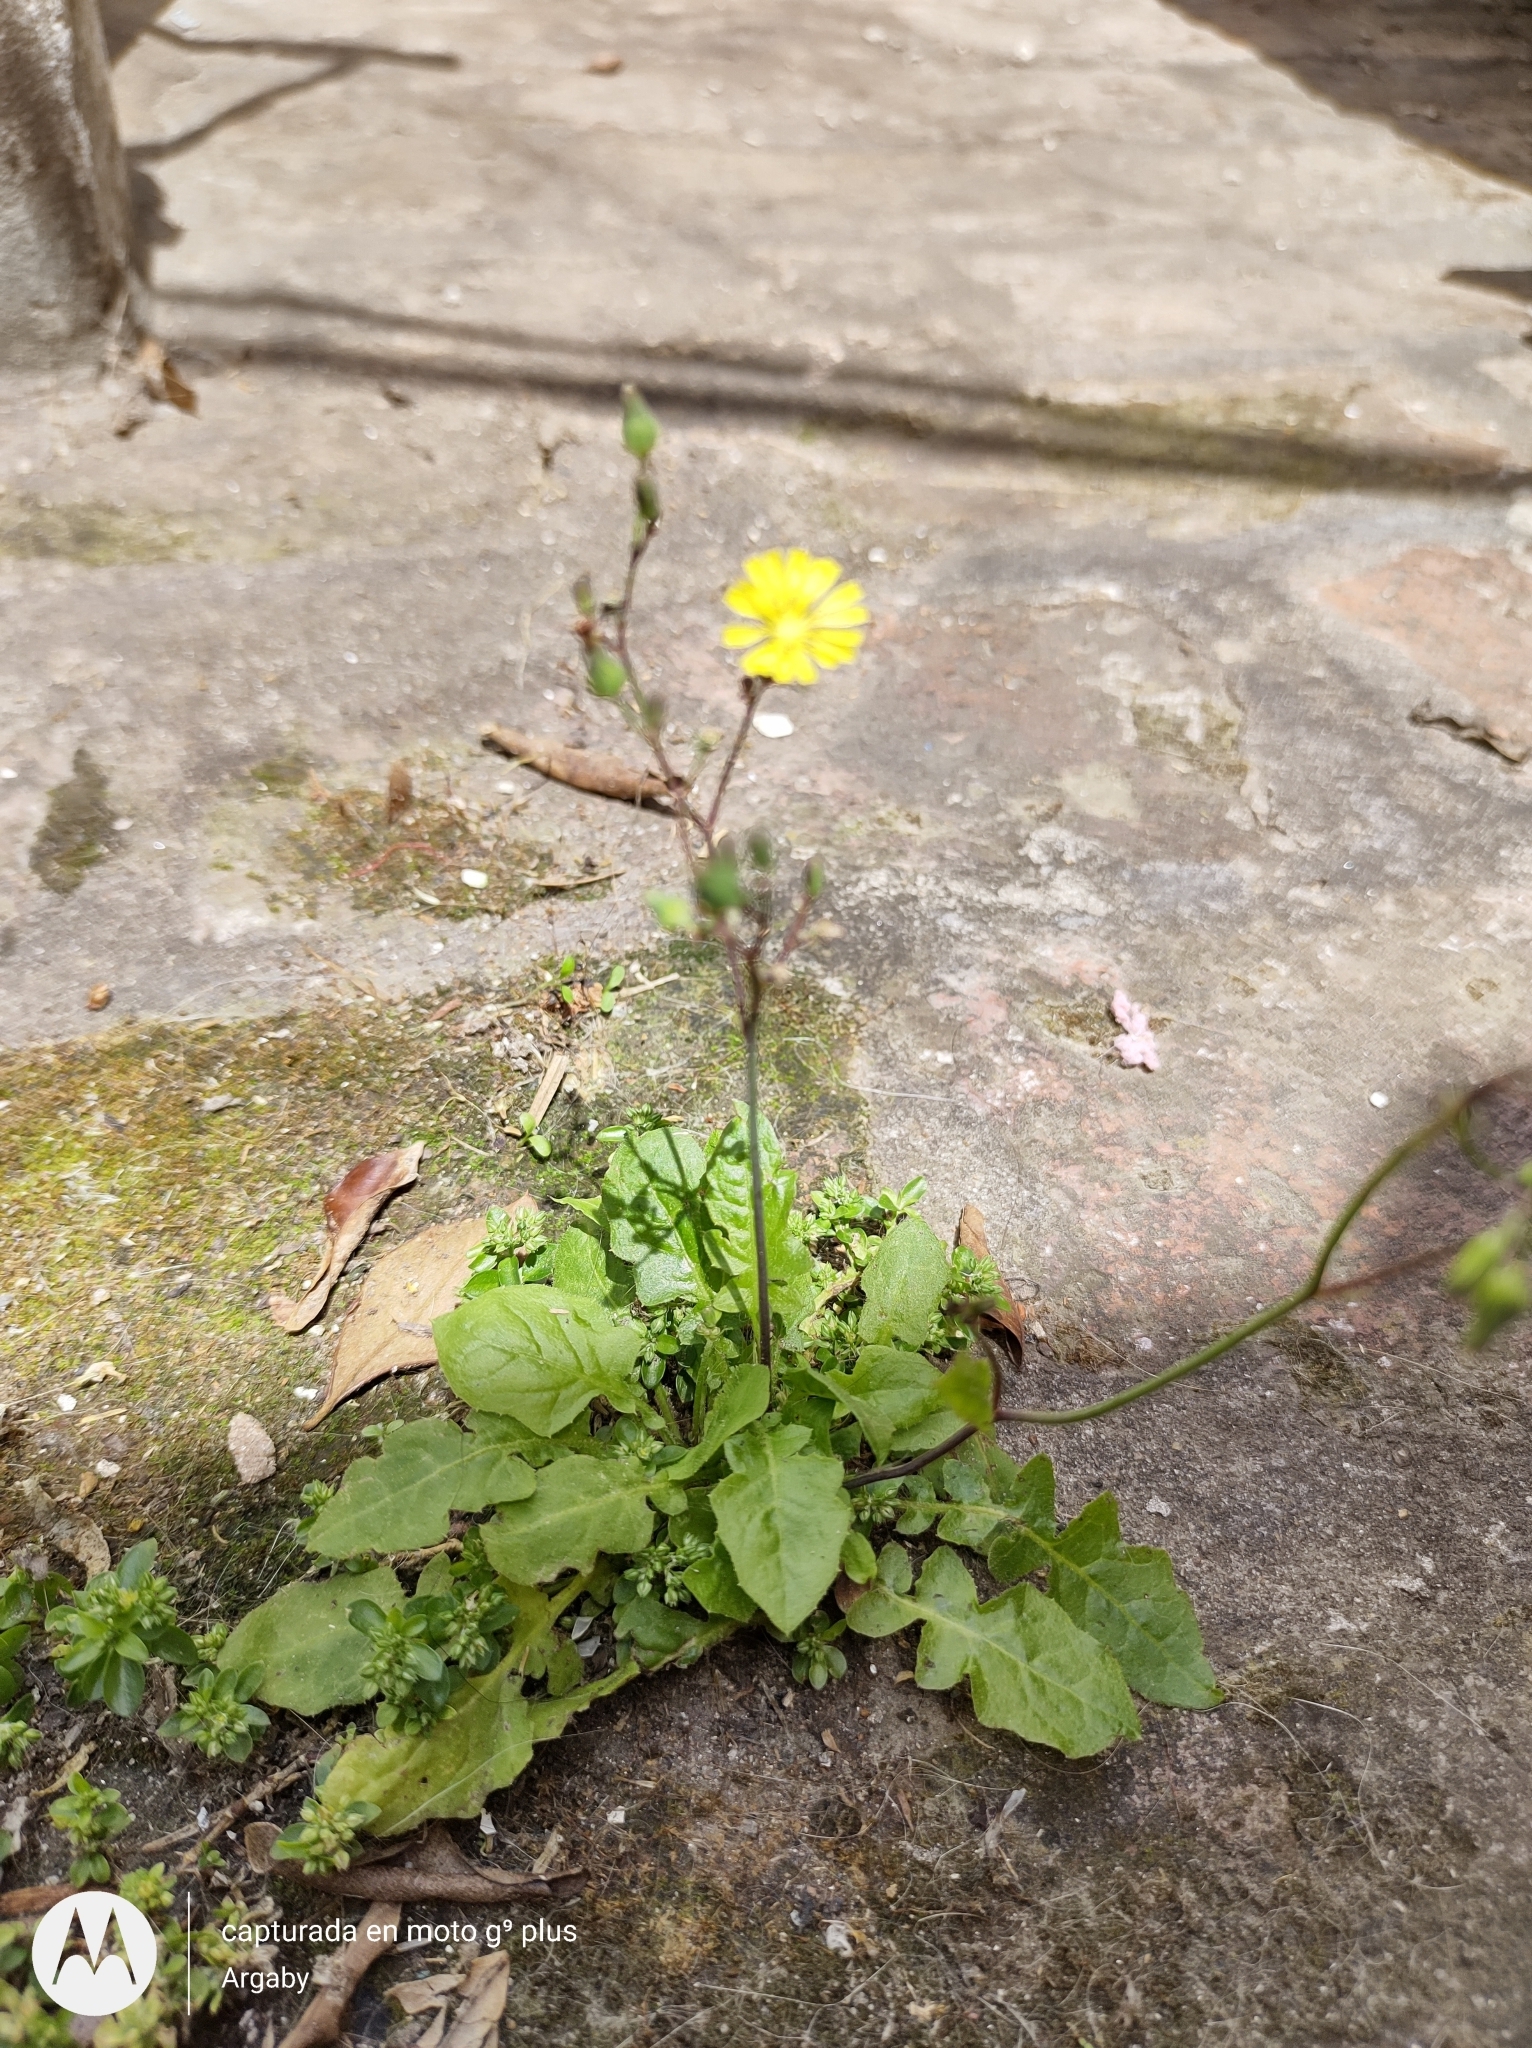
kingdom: Plantae
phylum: Tracheophyta
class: Magnoliopsida
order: Asterales
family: Asteraceae
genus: Youngia
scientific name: Youngia japonica
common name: Oriental false hawksbeard
